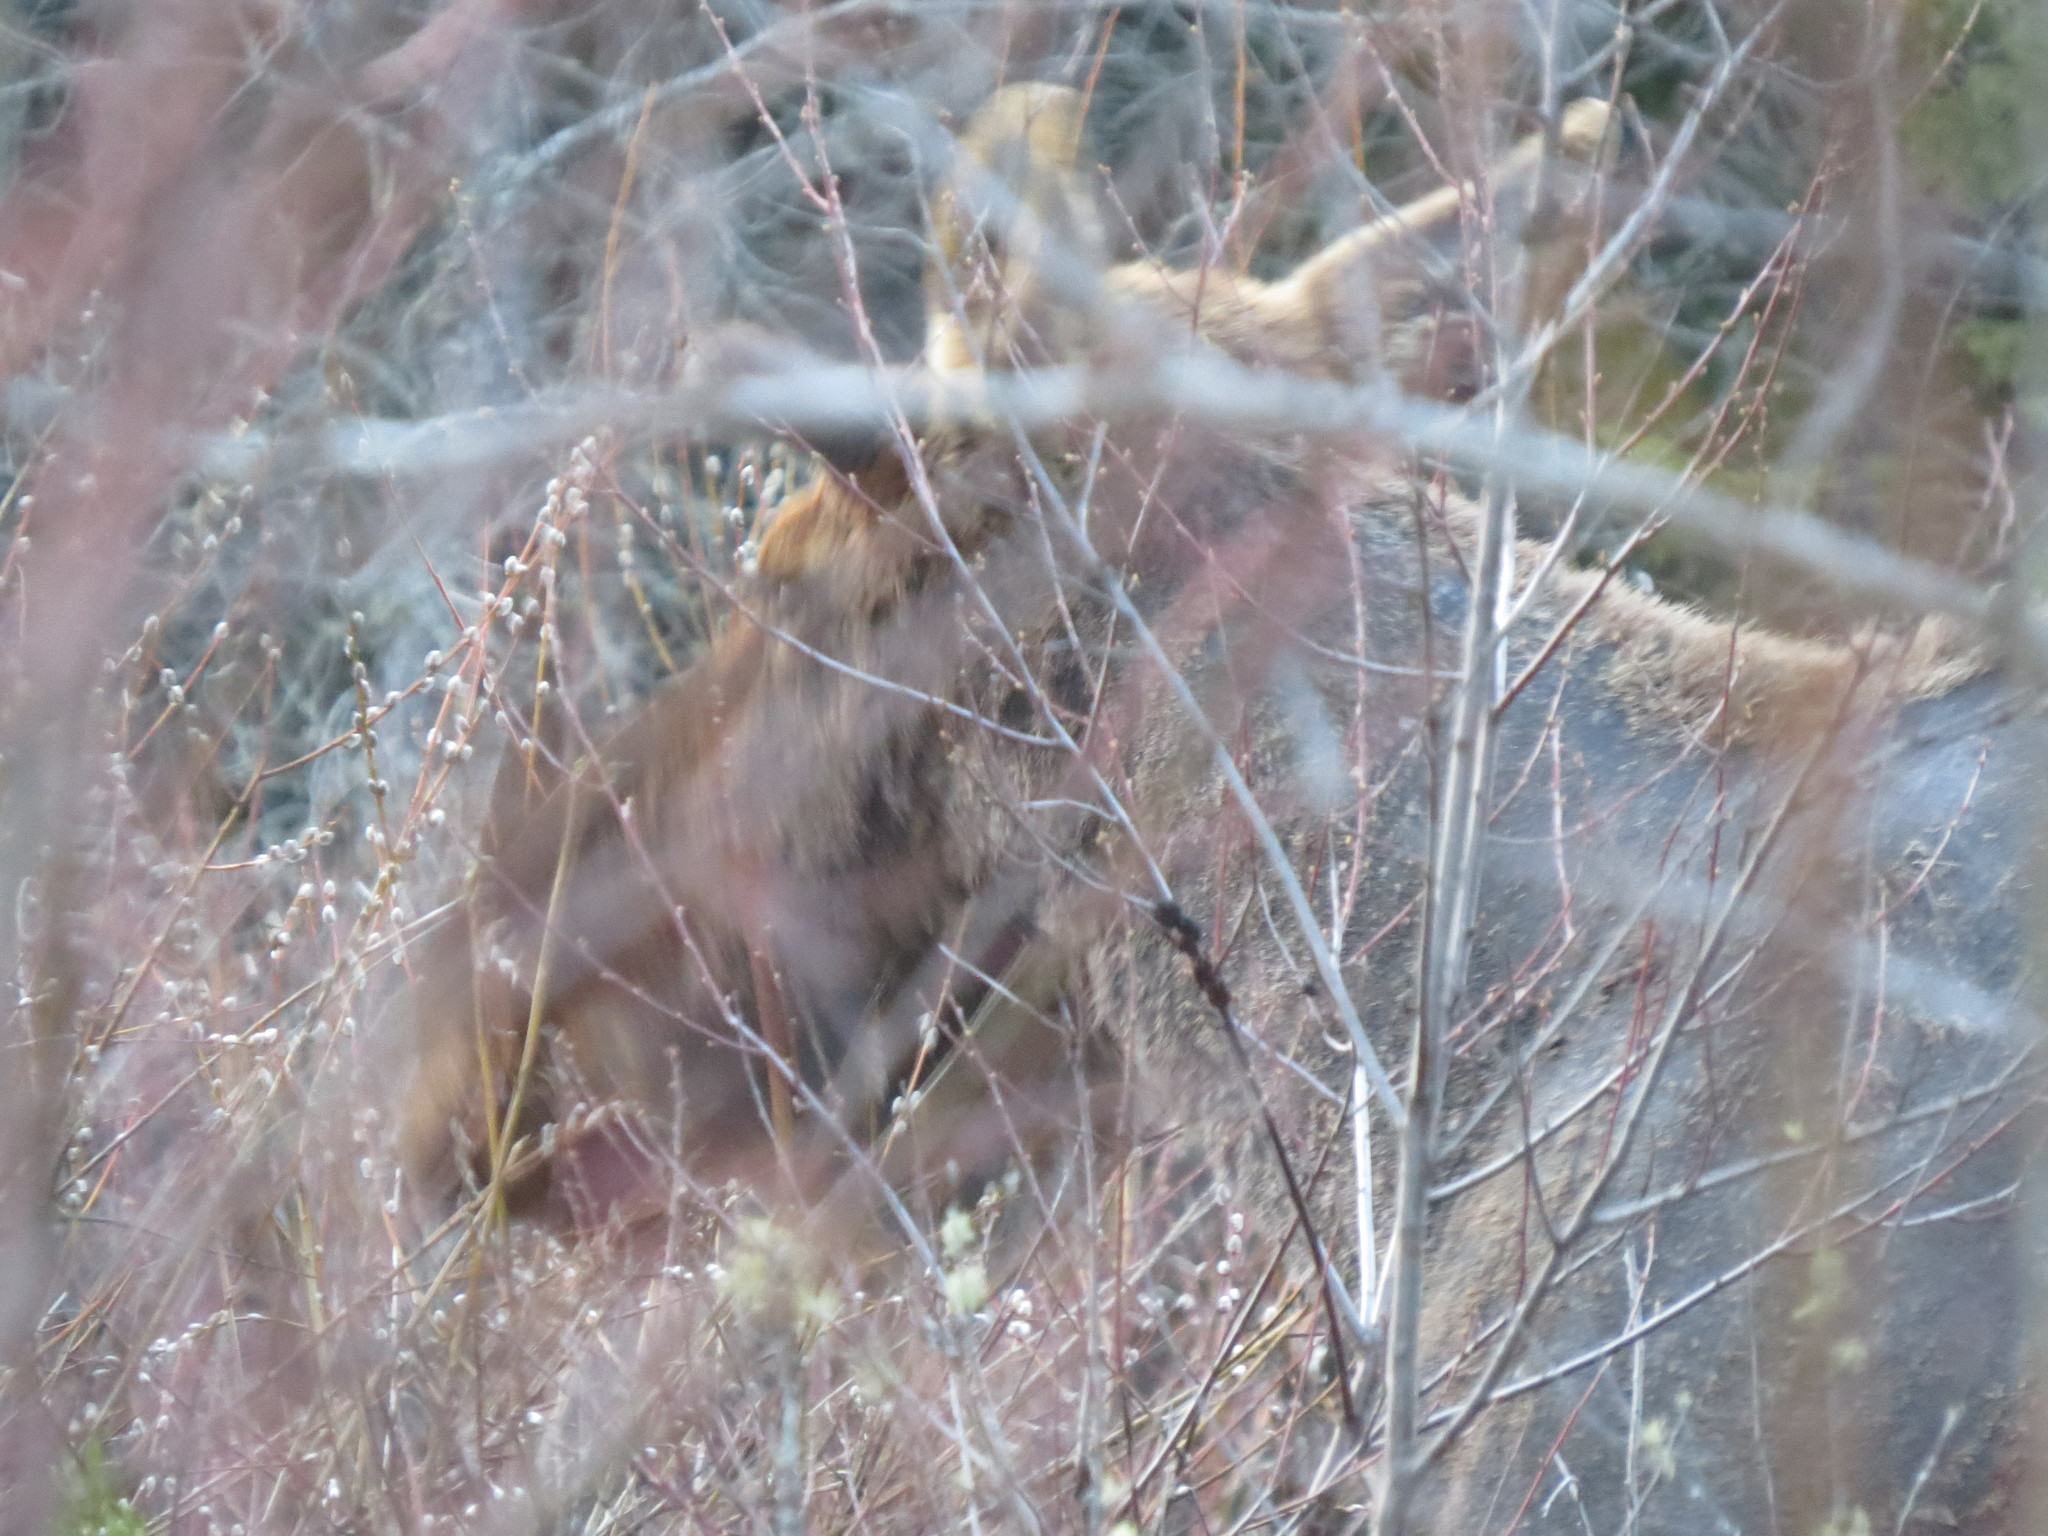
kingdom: Animalia
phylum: Chordata
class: Mammalia
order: Artiodactyla
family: Cervidae
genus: Alces
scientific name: Alces alces
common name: Moose
